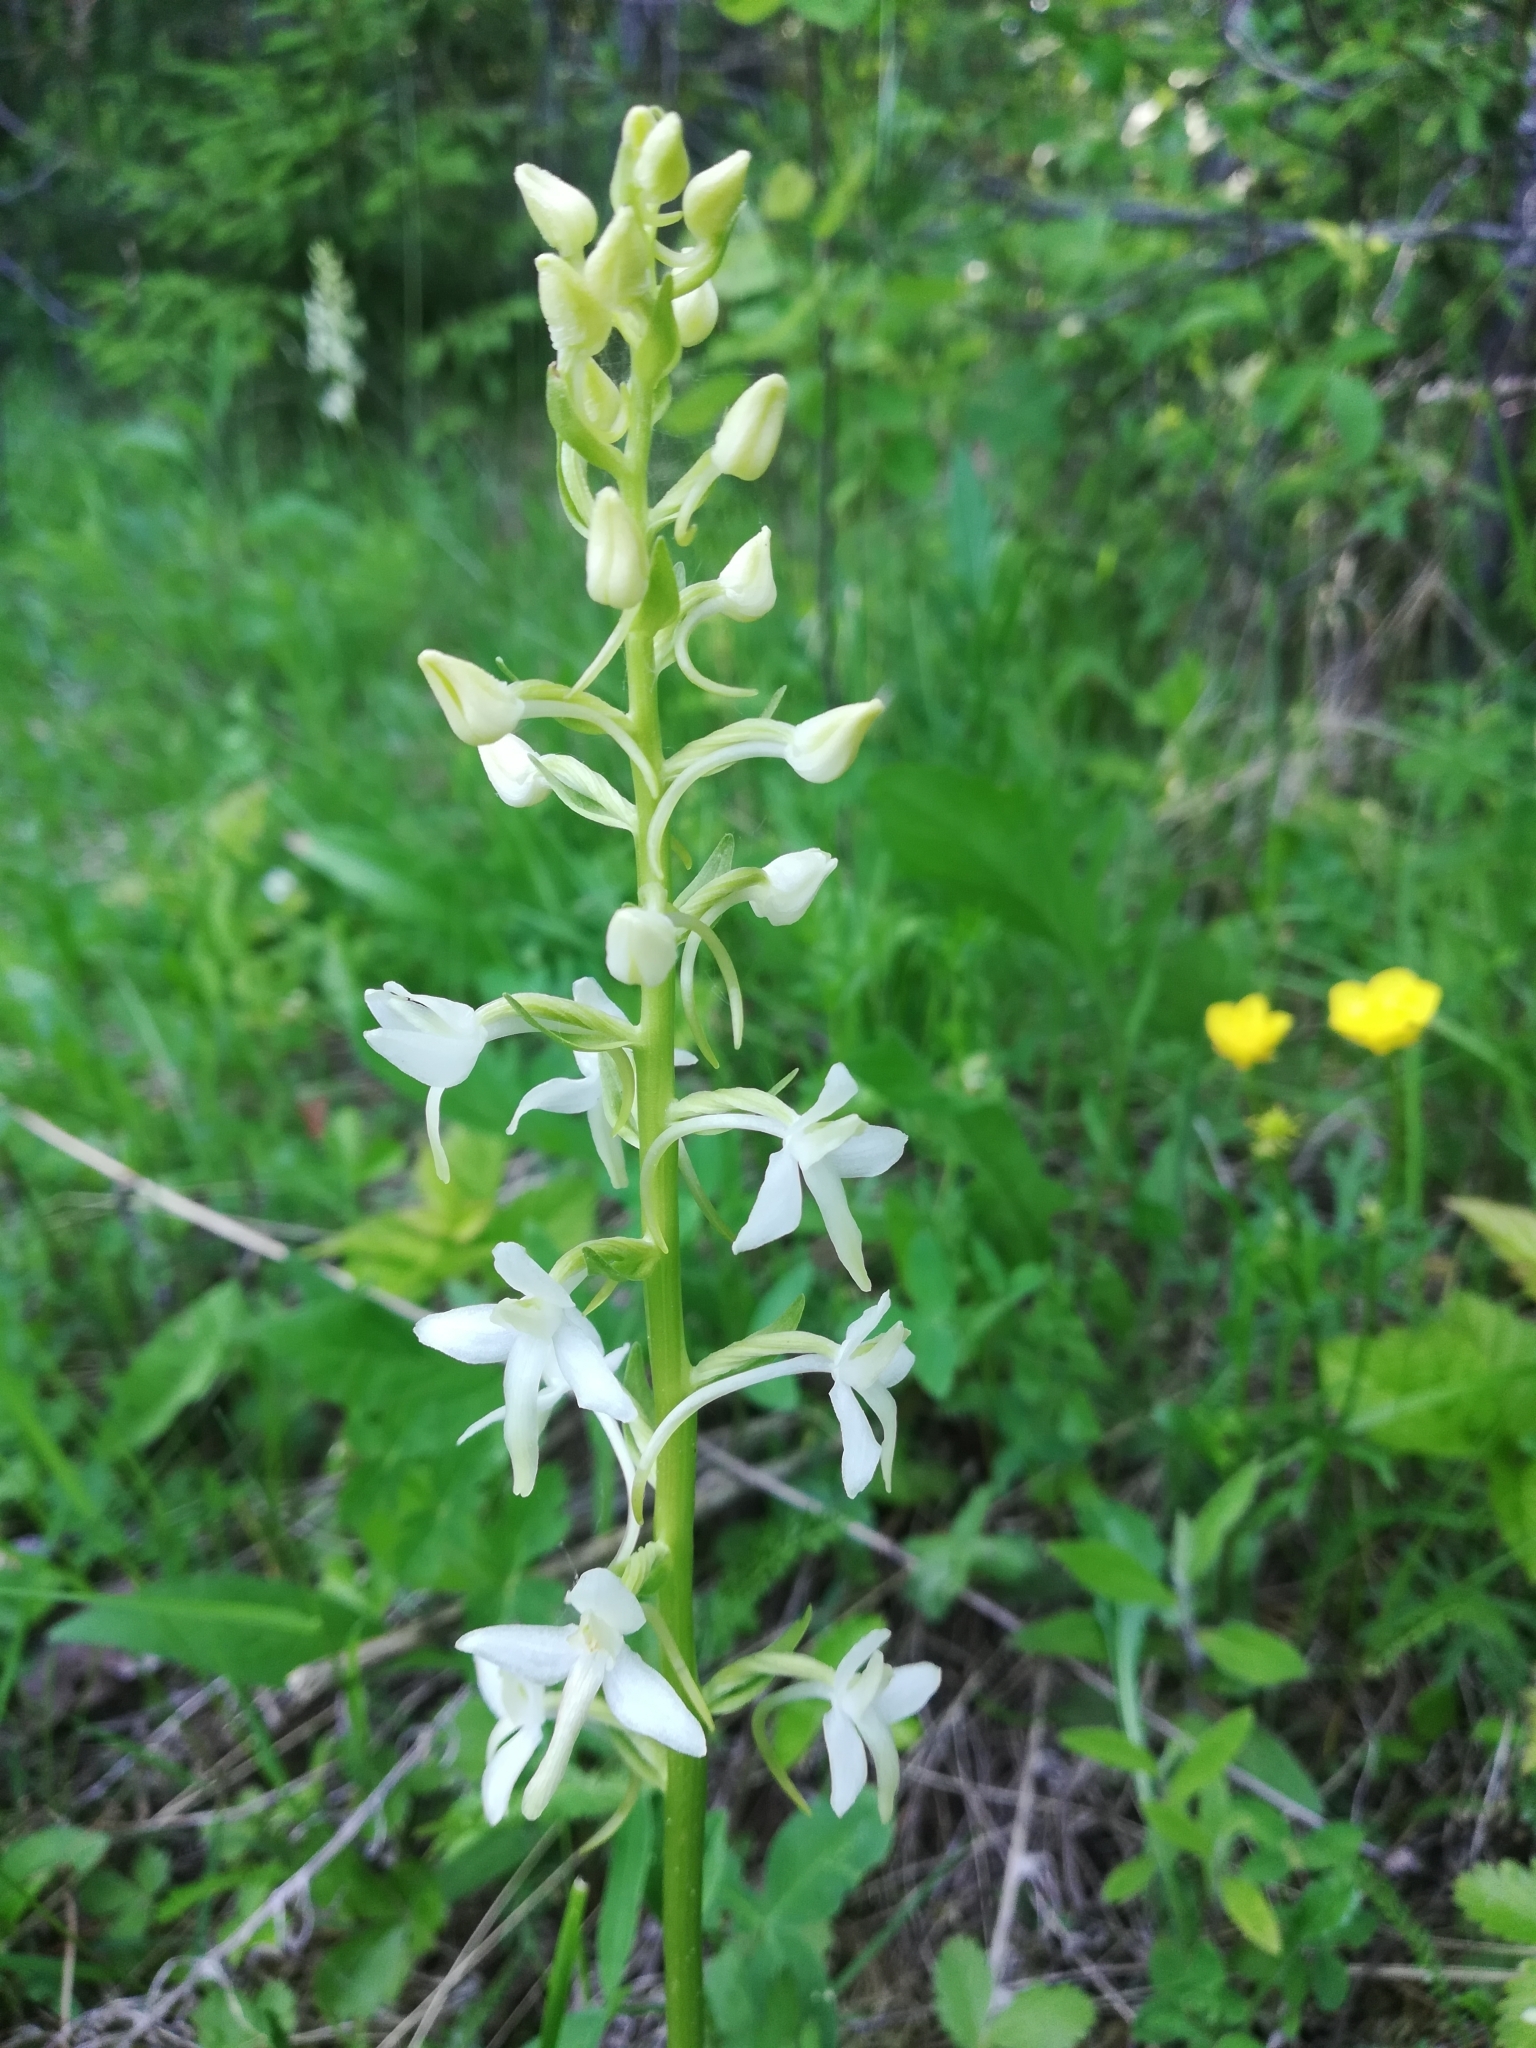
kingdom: Plantae
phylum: Tracheophyta
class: Liliopsida
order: Asparagales
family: Orchidaceae
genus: Platanthera
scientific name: Platanthera bifolia
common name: Lesser butterfly-orchid
